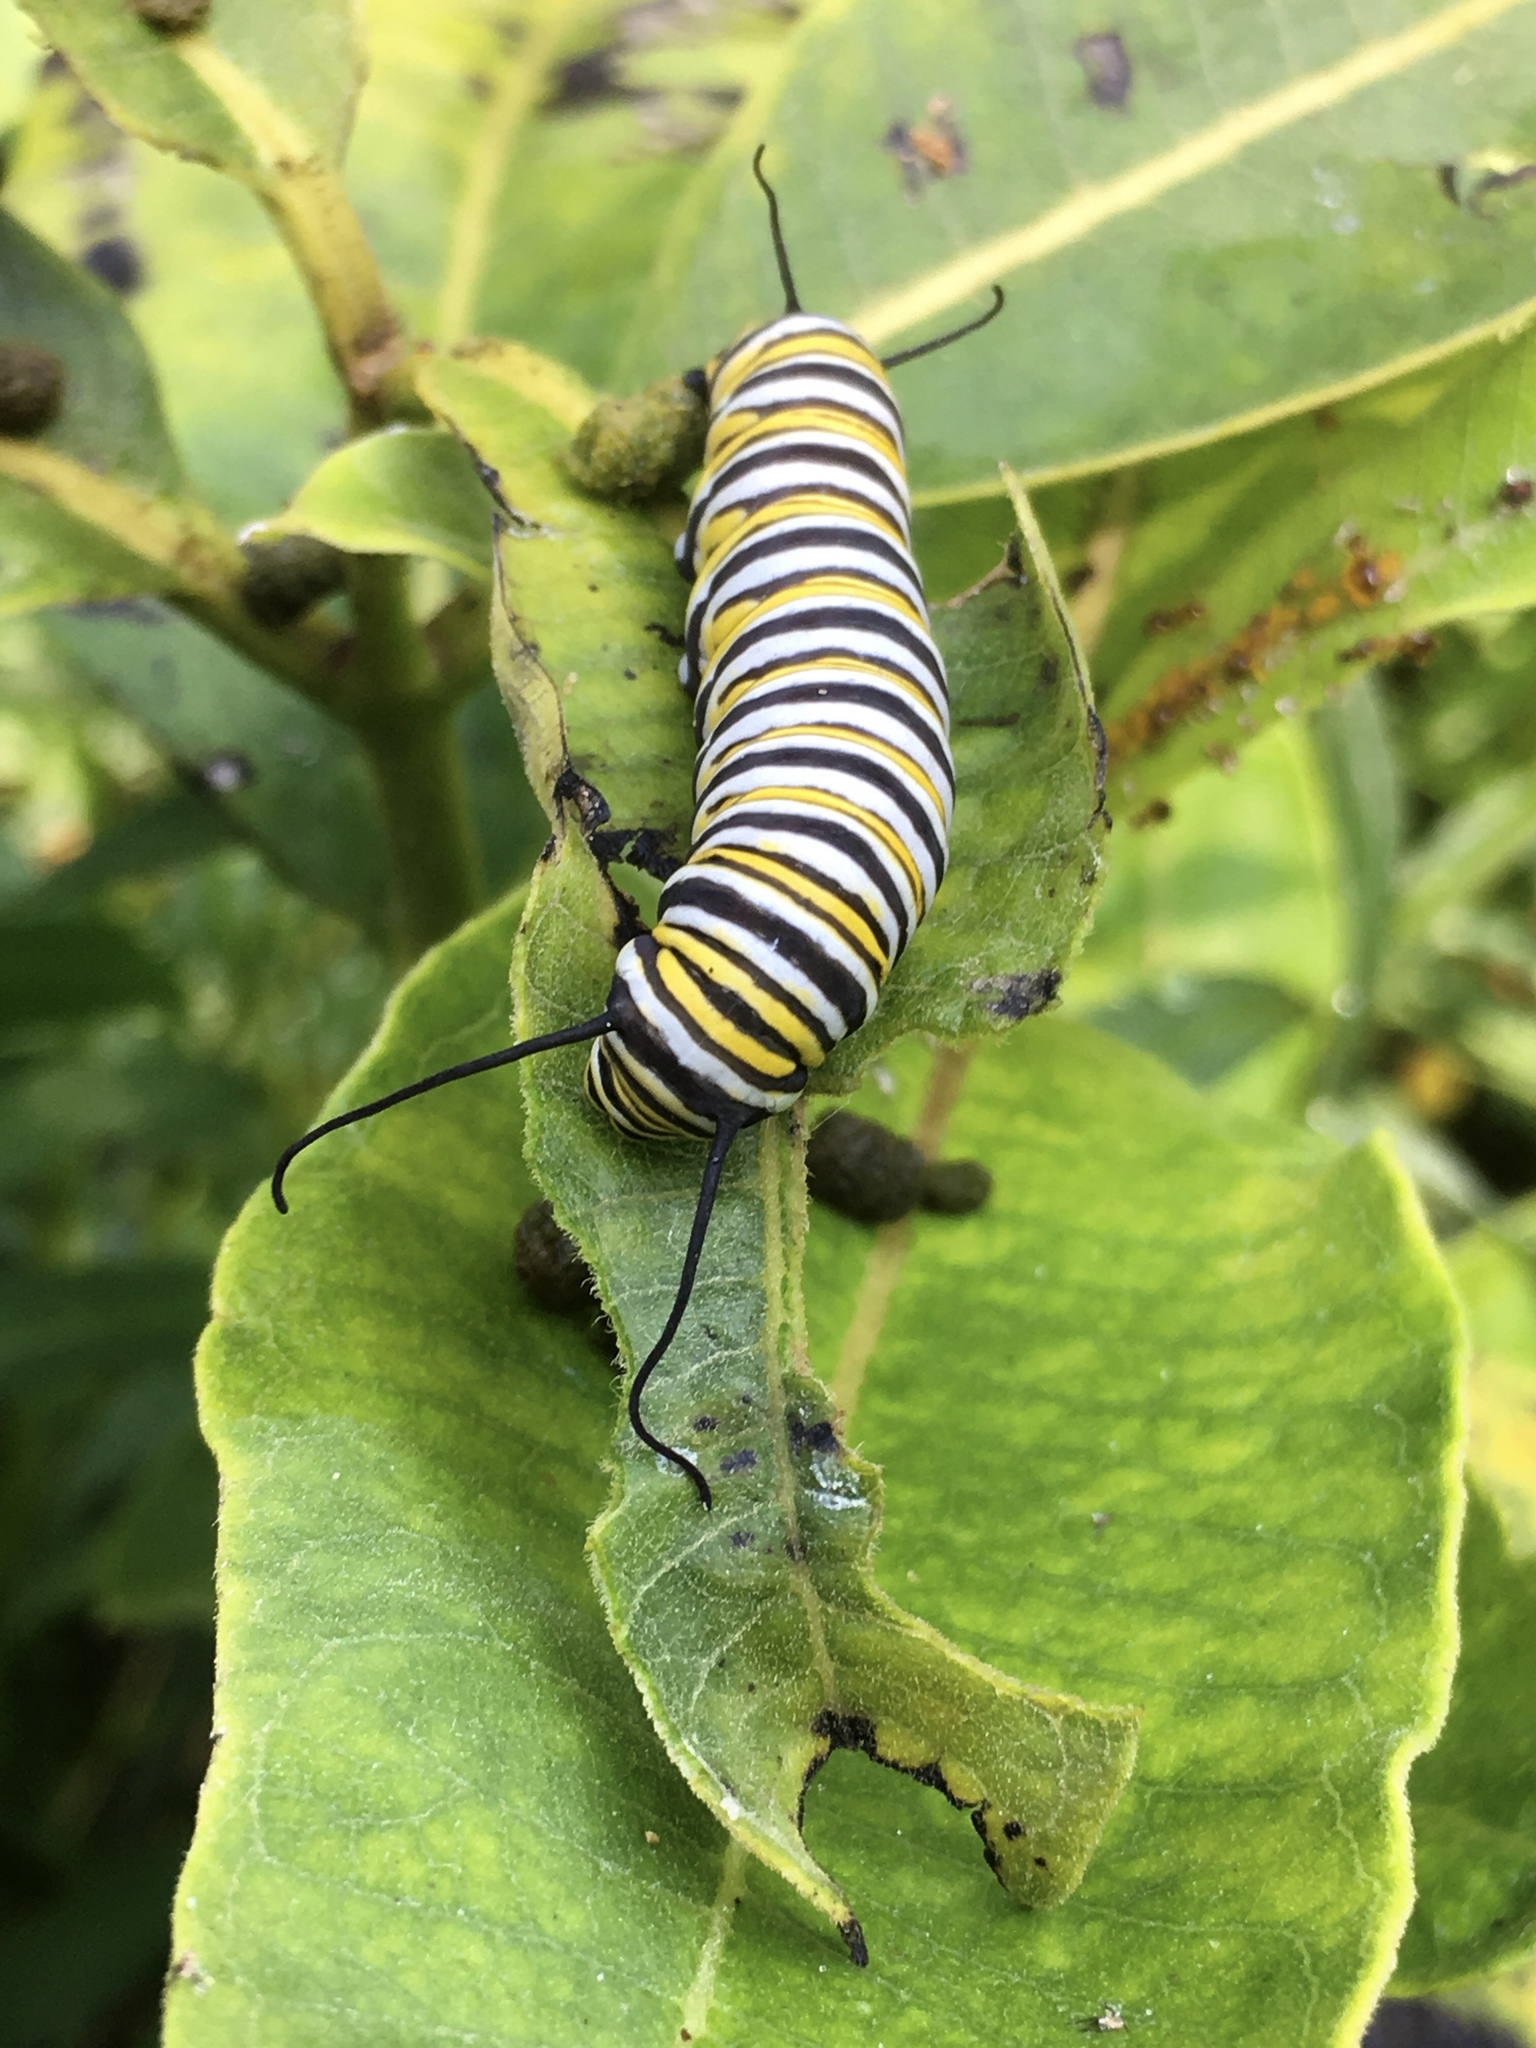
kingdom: Animalia
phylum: Arthropoda
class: Insecta
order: Lepidoptera
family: Nymphalidae
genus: Danaus
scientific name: Danaus plexippus
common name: Monarch
